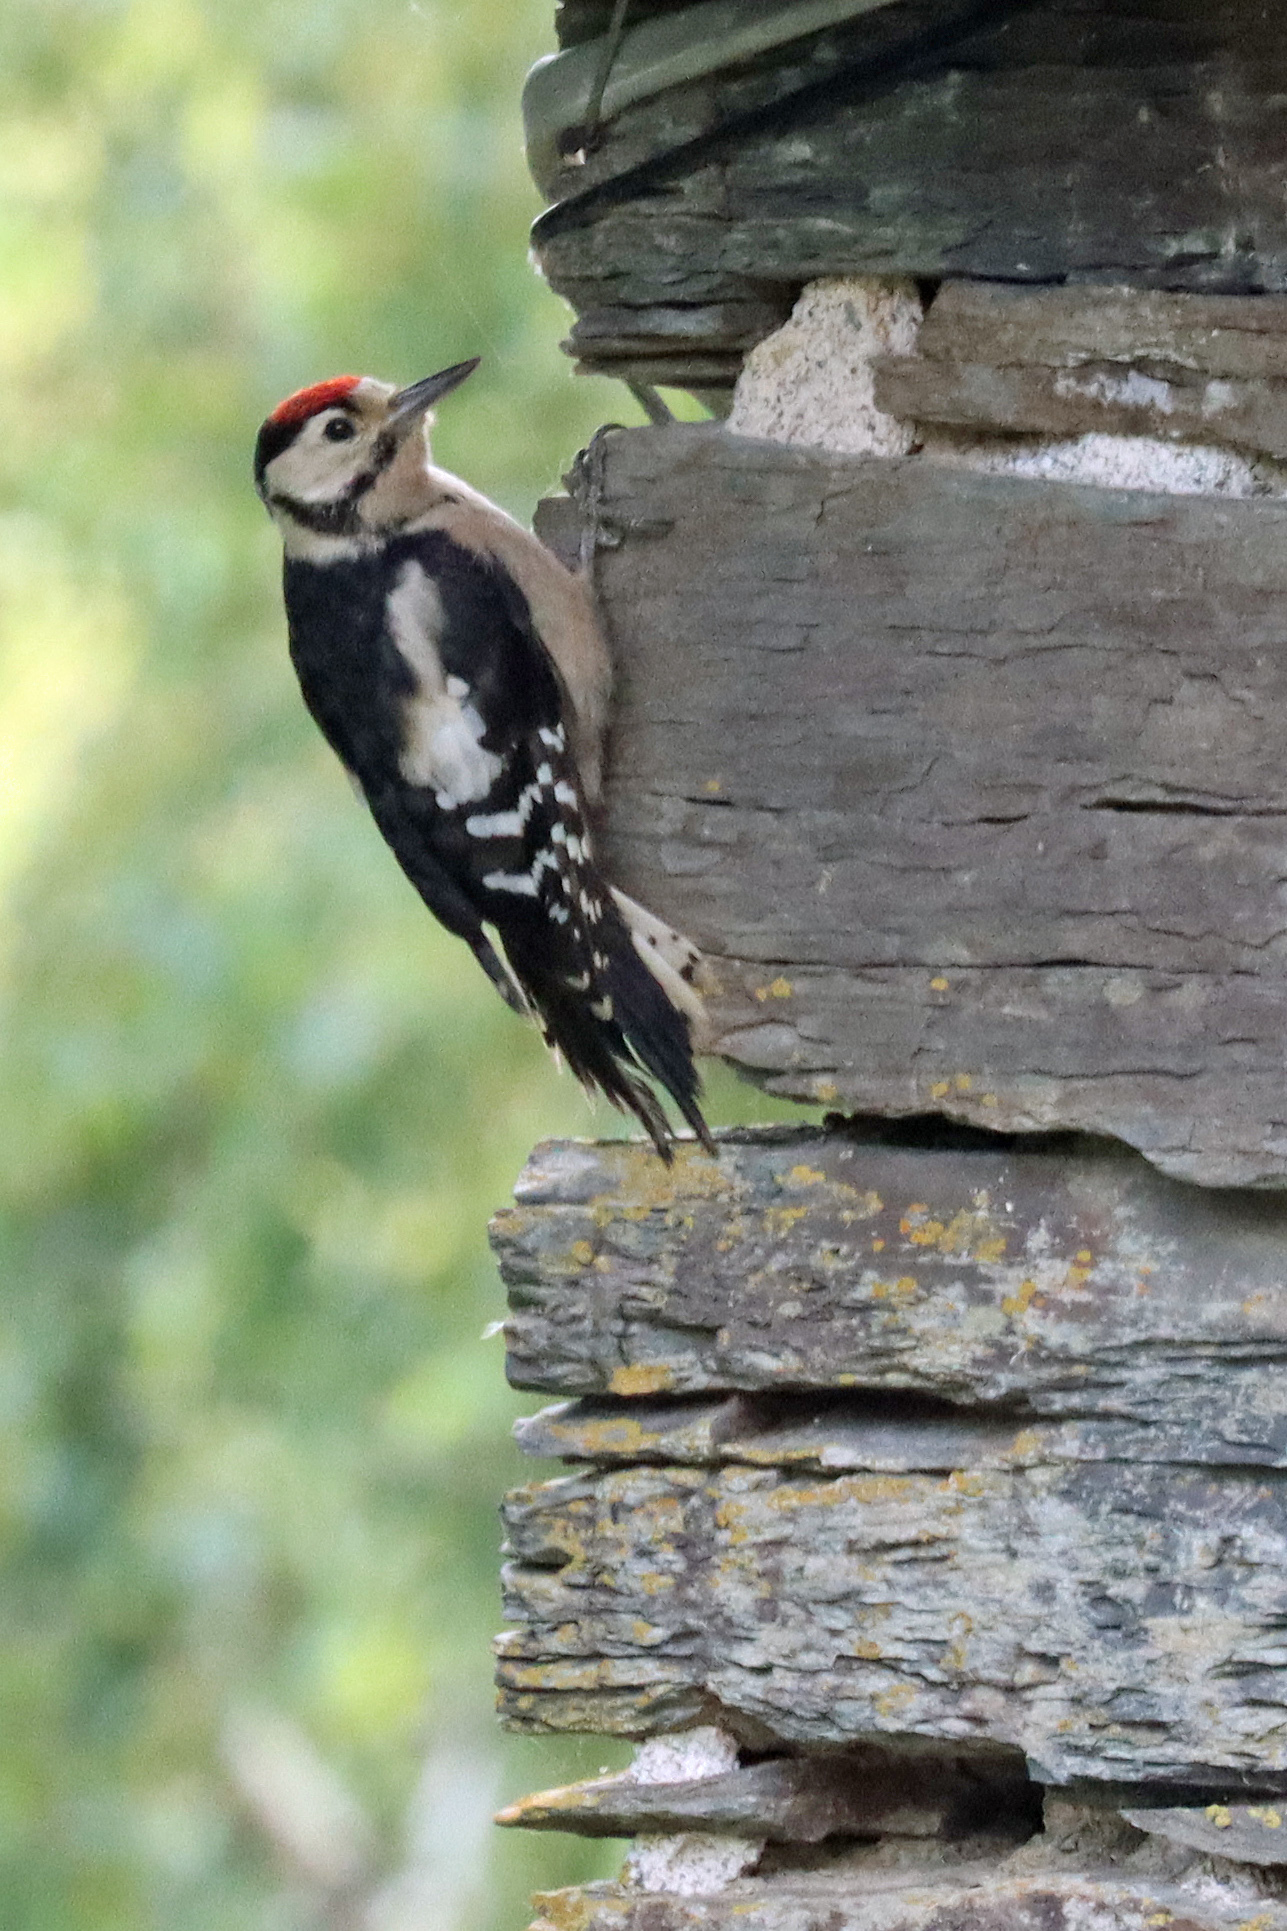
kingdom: Animalia
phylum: Chordata
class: Aves
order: Piciformes
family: Picidae
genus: Dendrocopos
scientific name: Dendrocopos major
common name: Great spotted woodpecker
